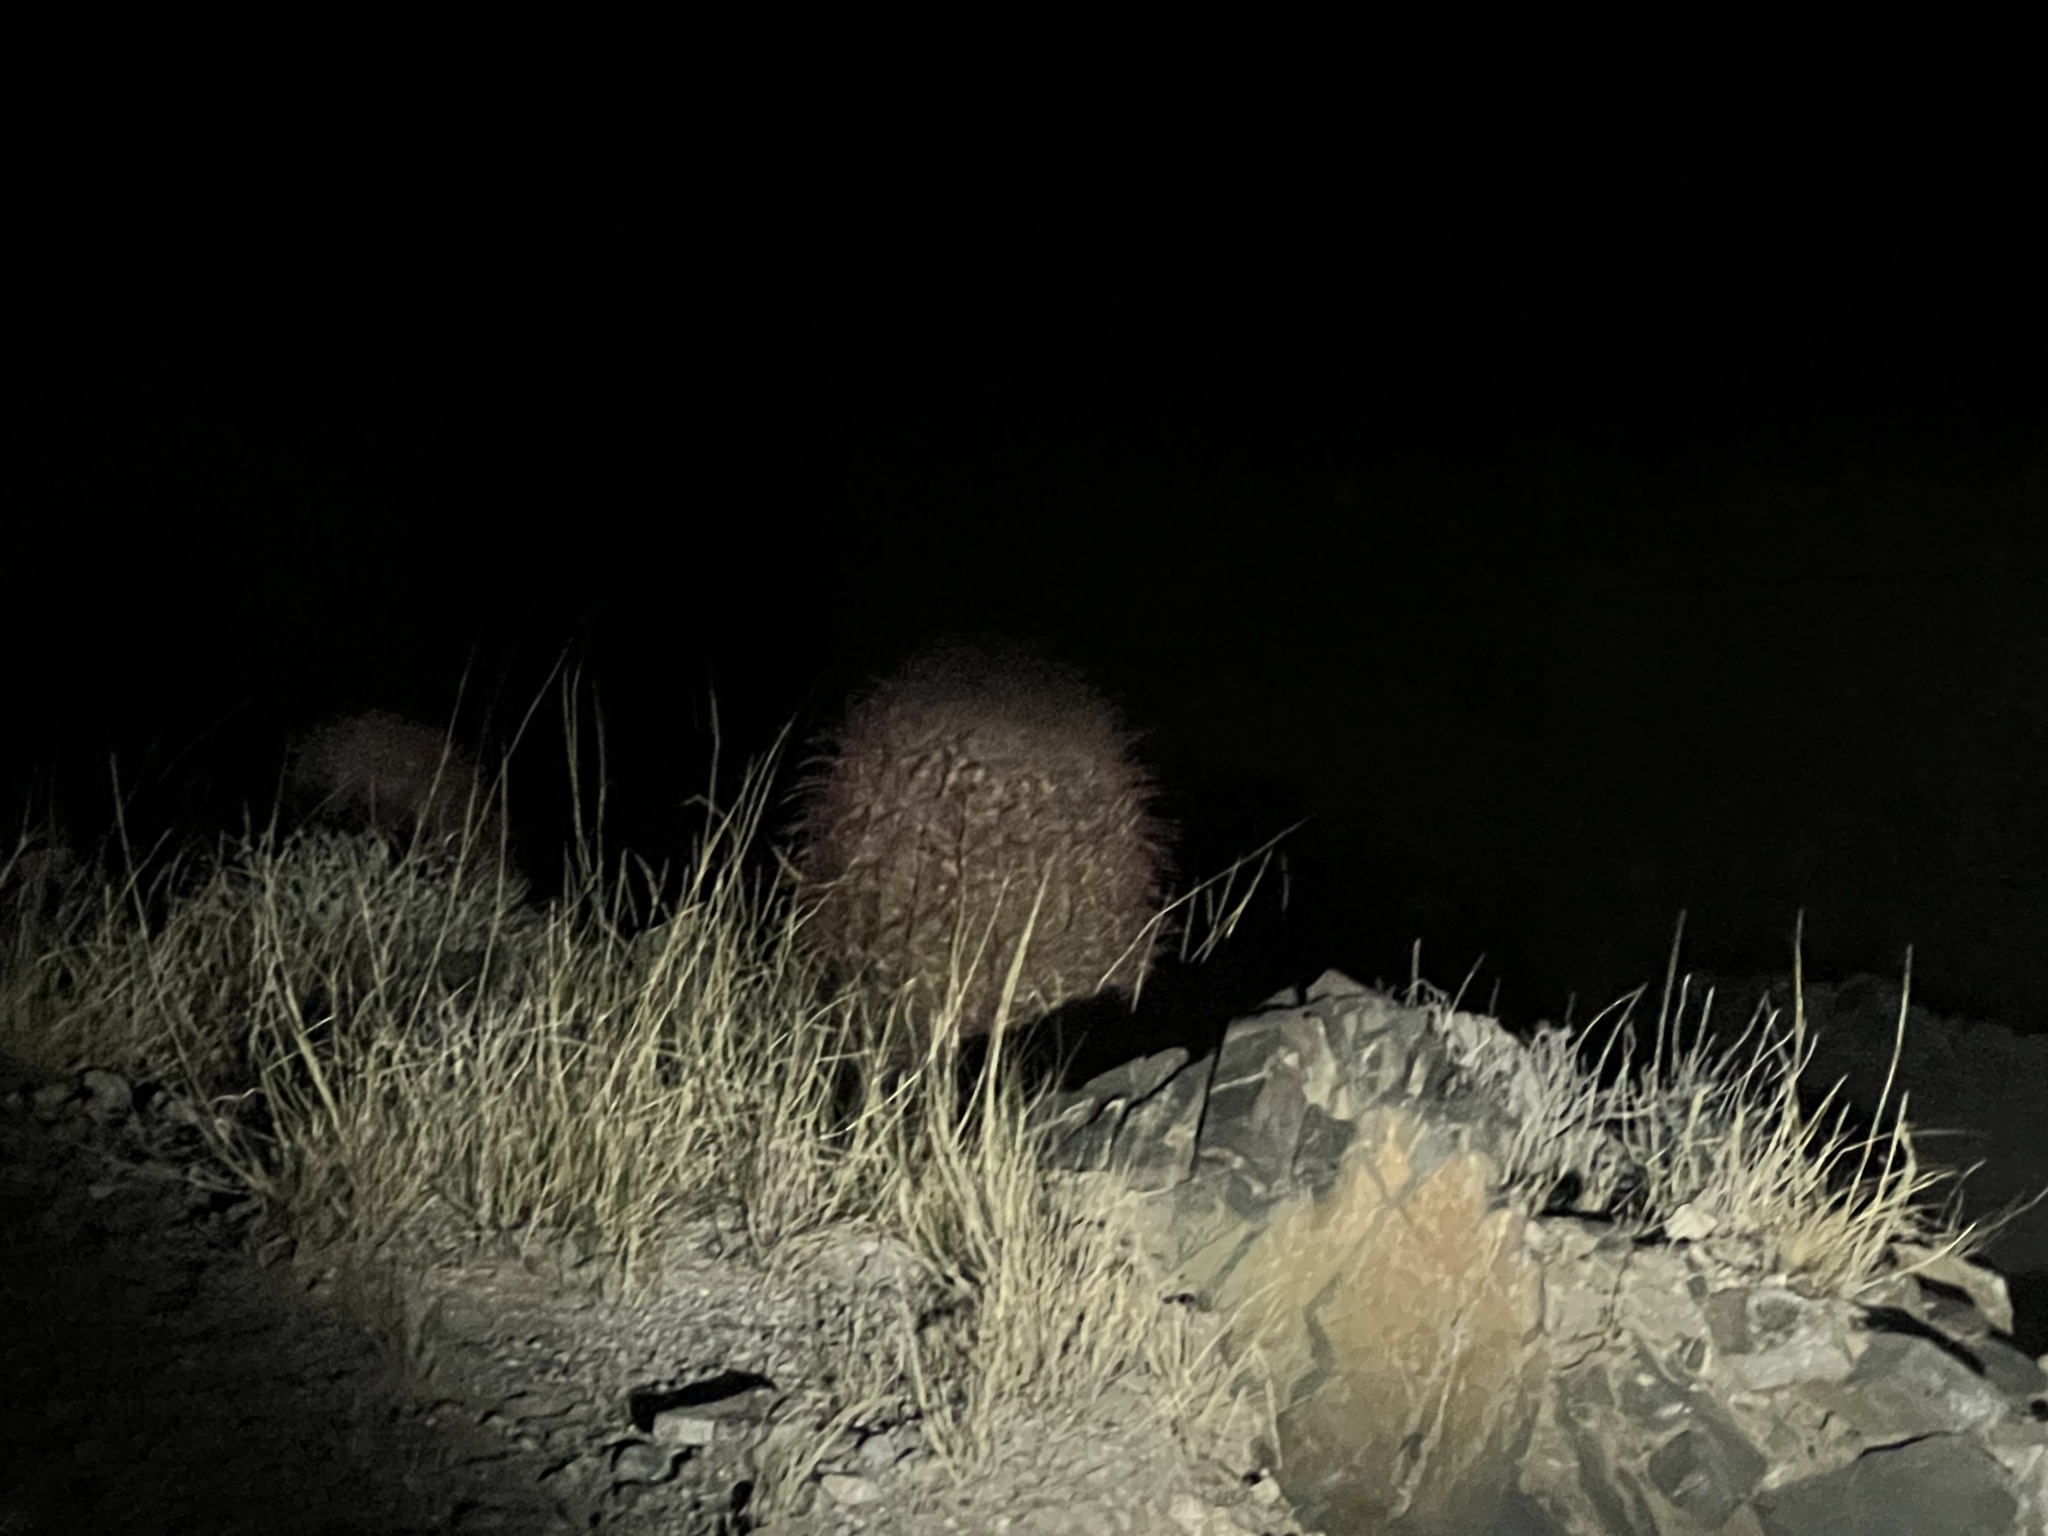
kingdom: Plantae
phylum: Tracheophyta
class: Magnoliopsida
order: Caryophyllales
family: Cactaceae
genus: Ferocactus
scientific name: Ferocactus cylindraceus
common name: California barrel cactus
